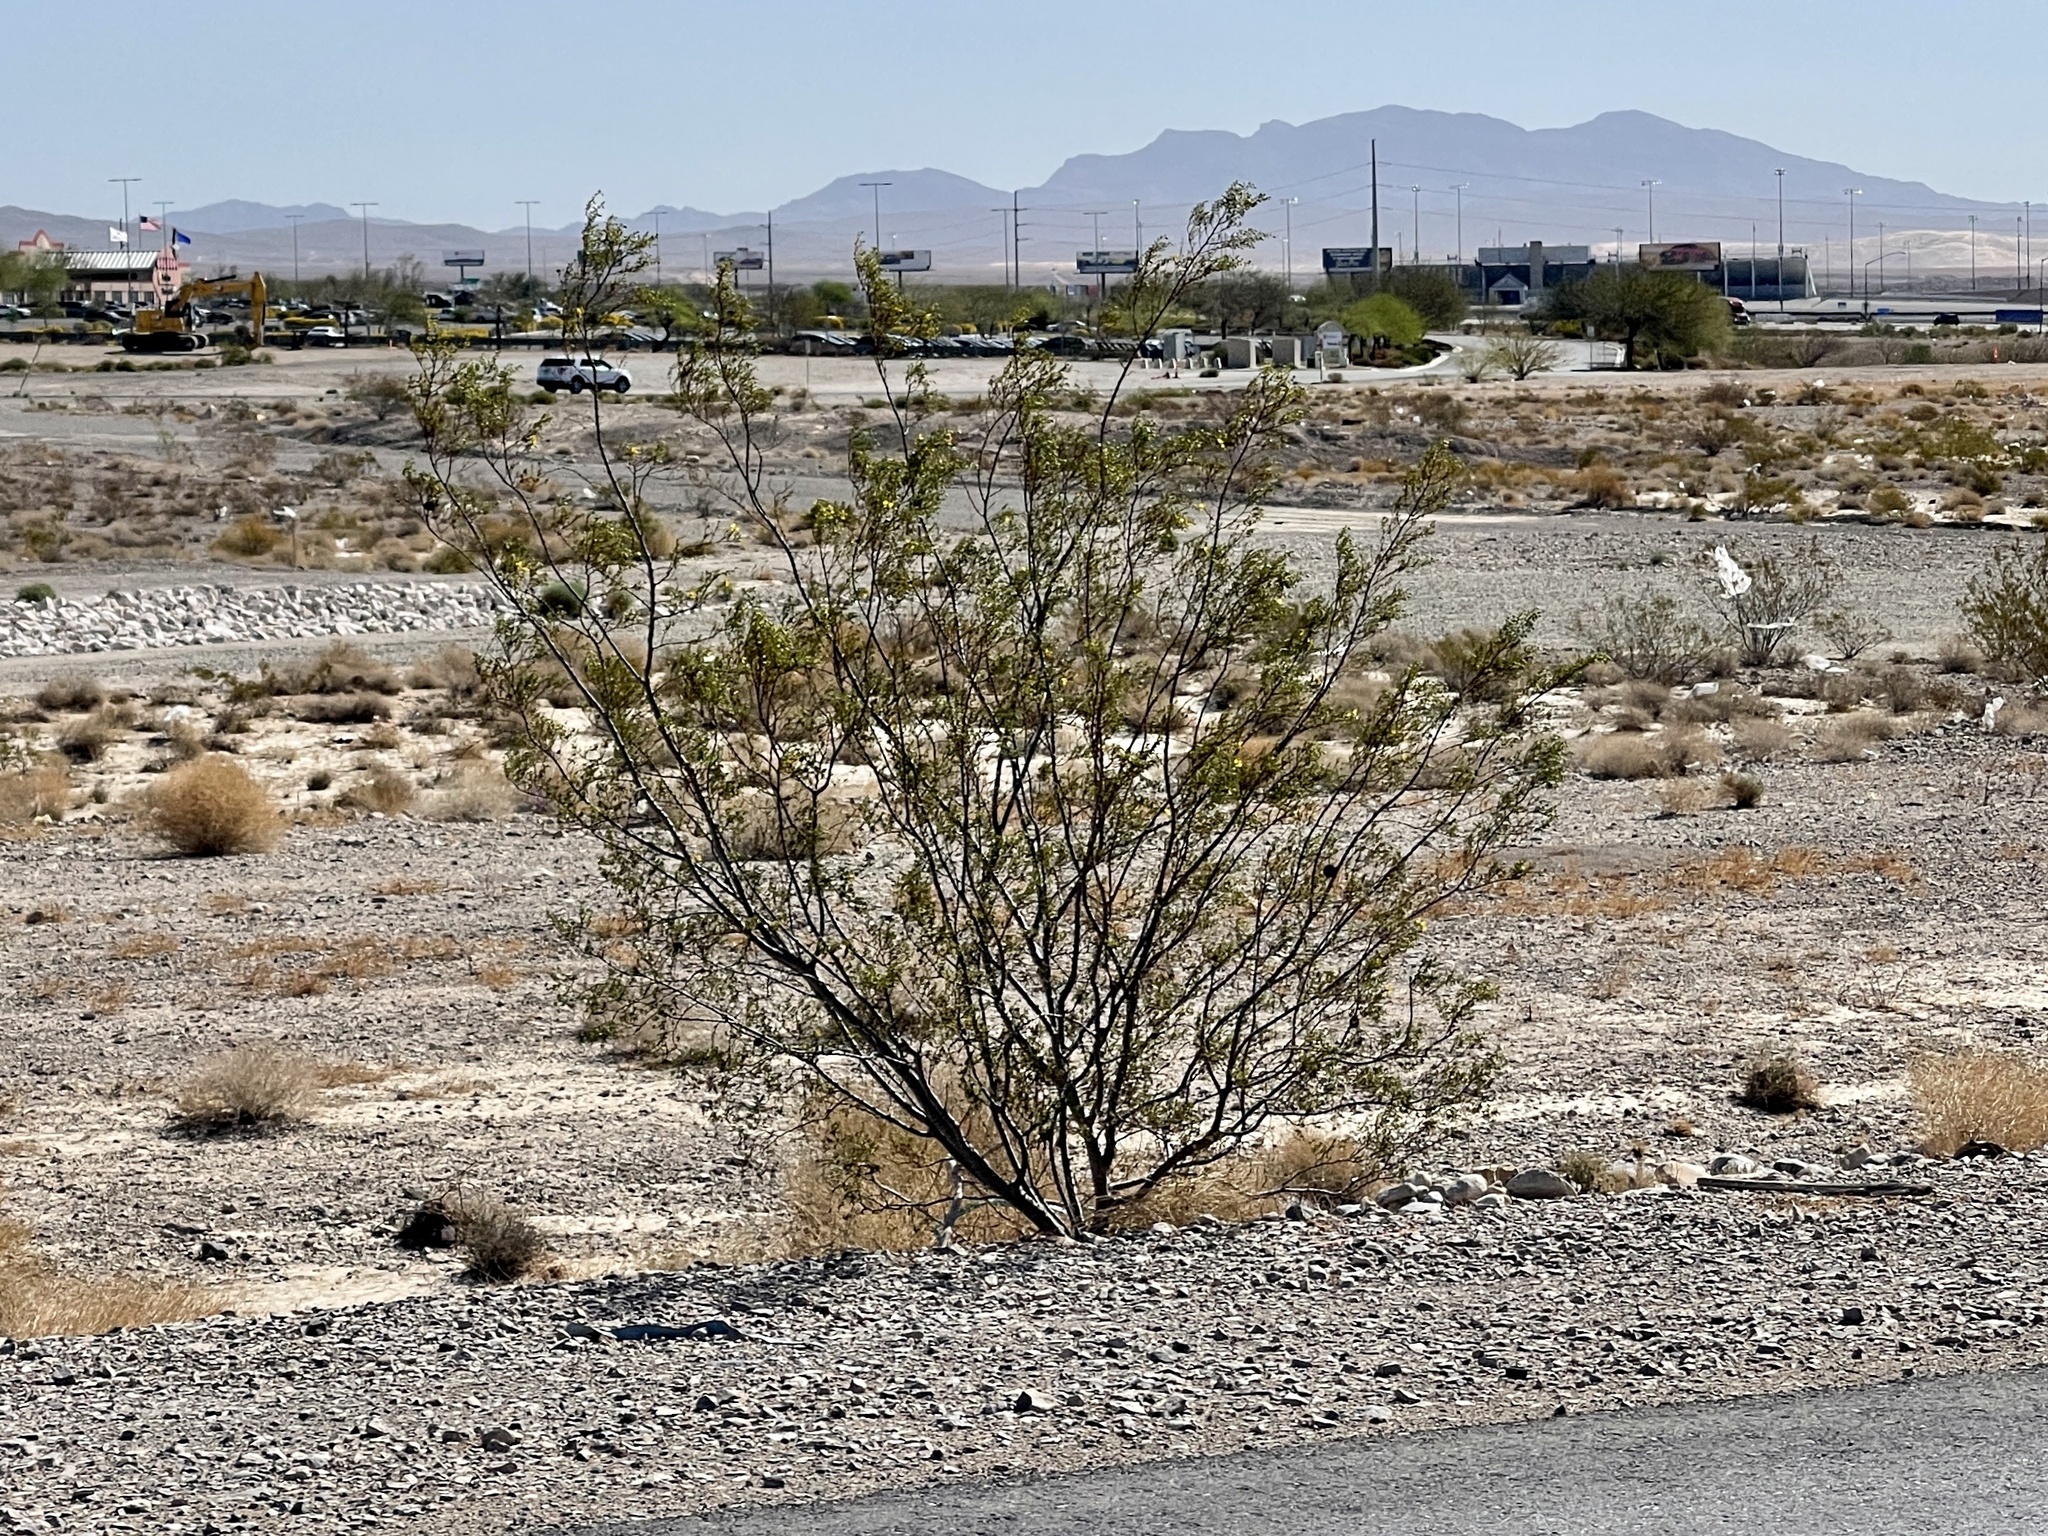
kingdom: Plantae
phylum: Tracheophyta
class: Magnoliopsida
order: Zygophyllales
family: Zygophyllaceae
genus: Larrea
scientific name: Larrea tridentata
